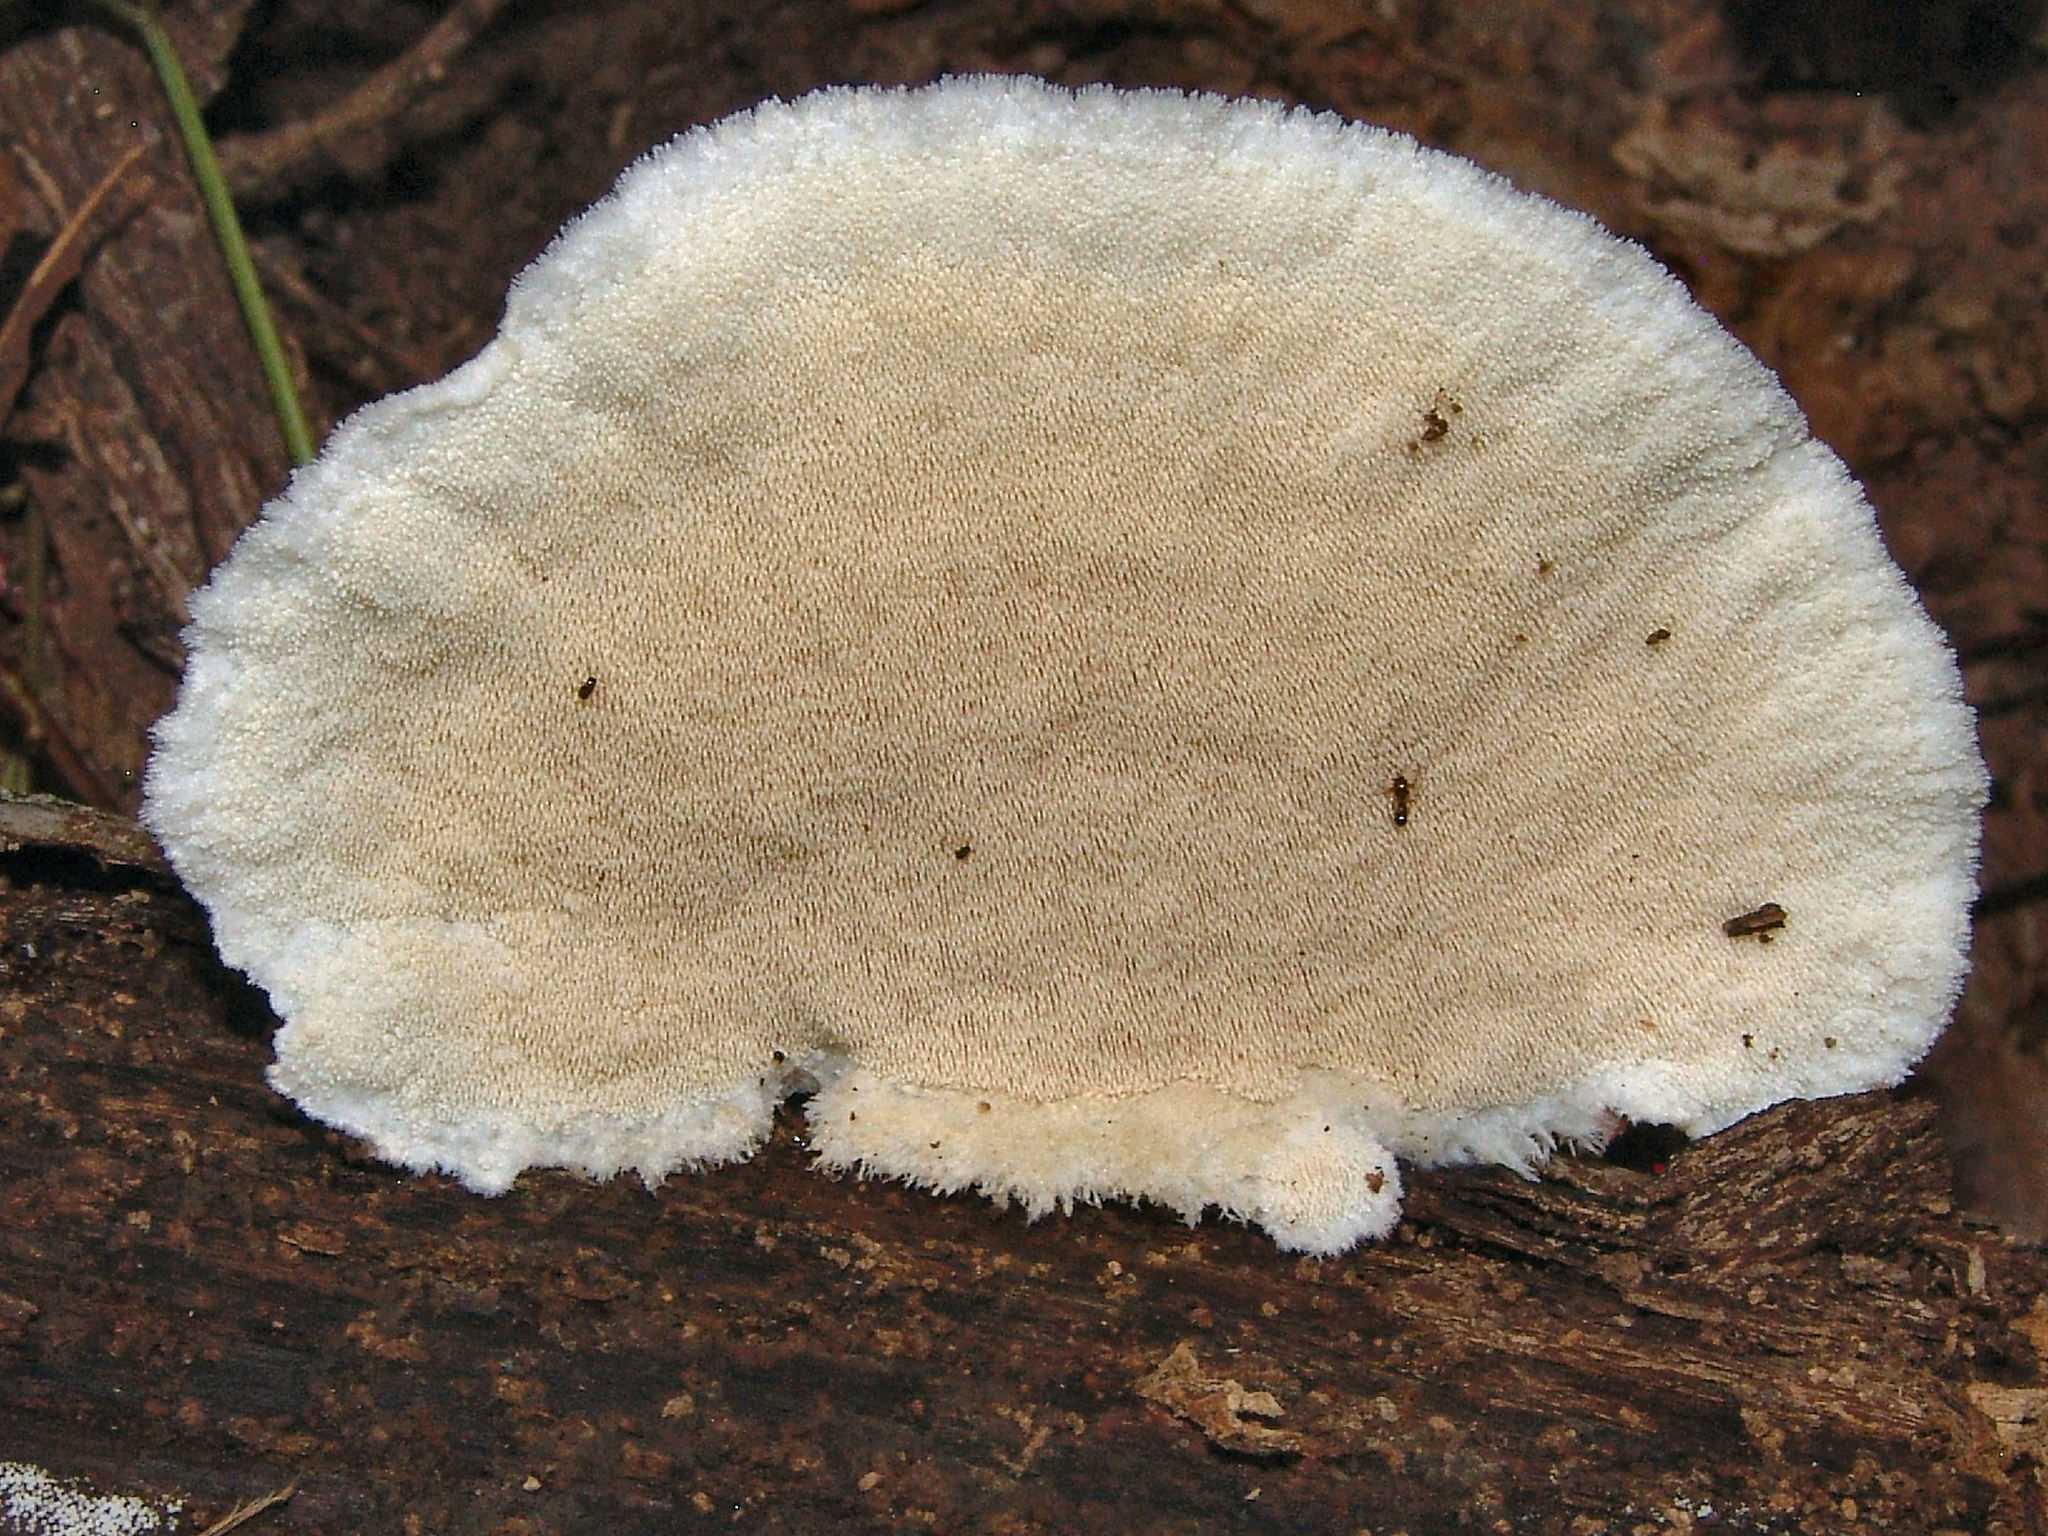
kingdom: Fungi
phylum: Basidiomycota
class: Agaricomycetes
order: Polyporales
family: Meruliaceae
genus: Donkia
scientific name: Donkia pulcherrima
